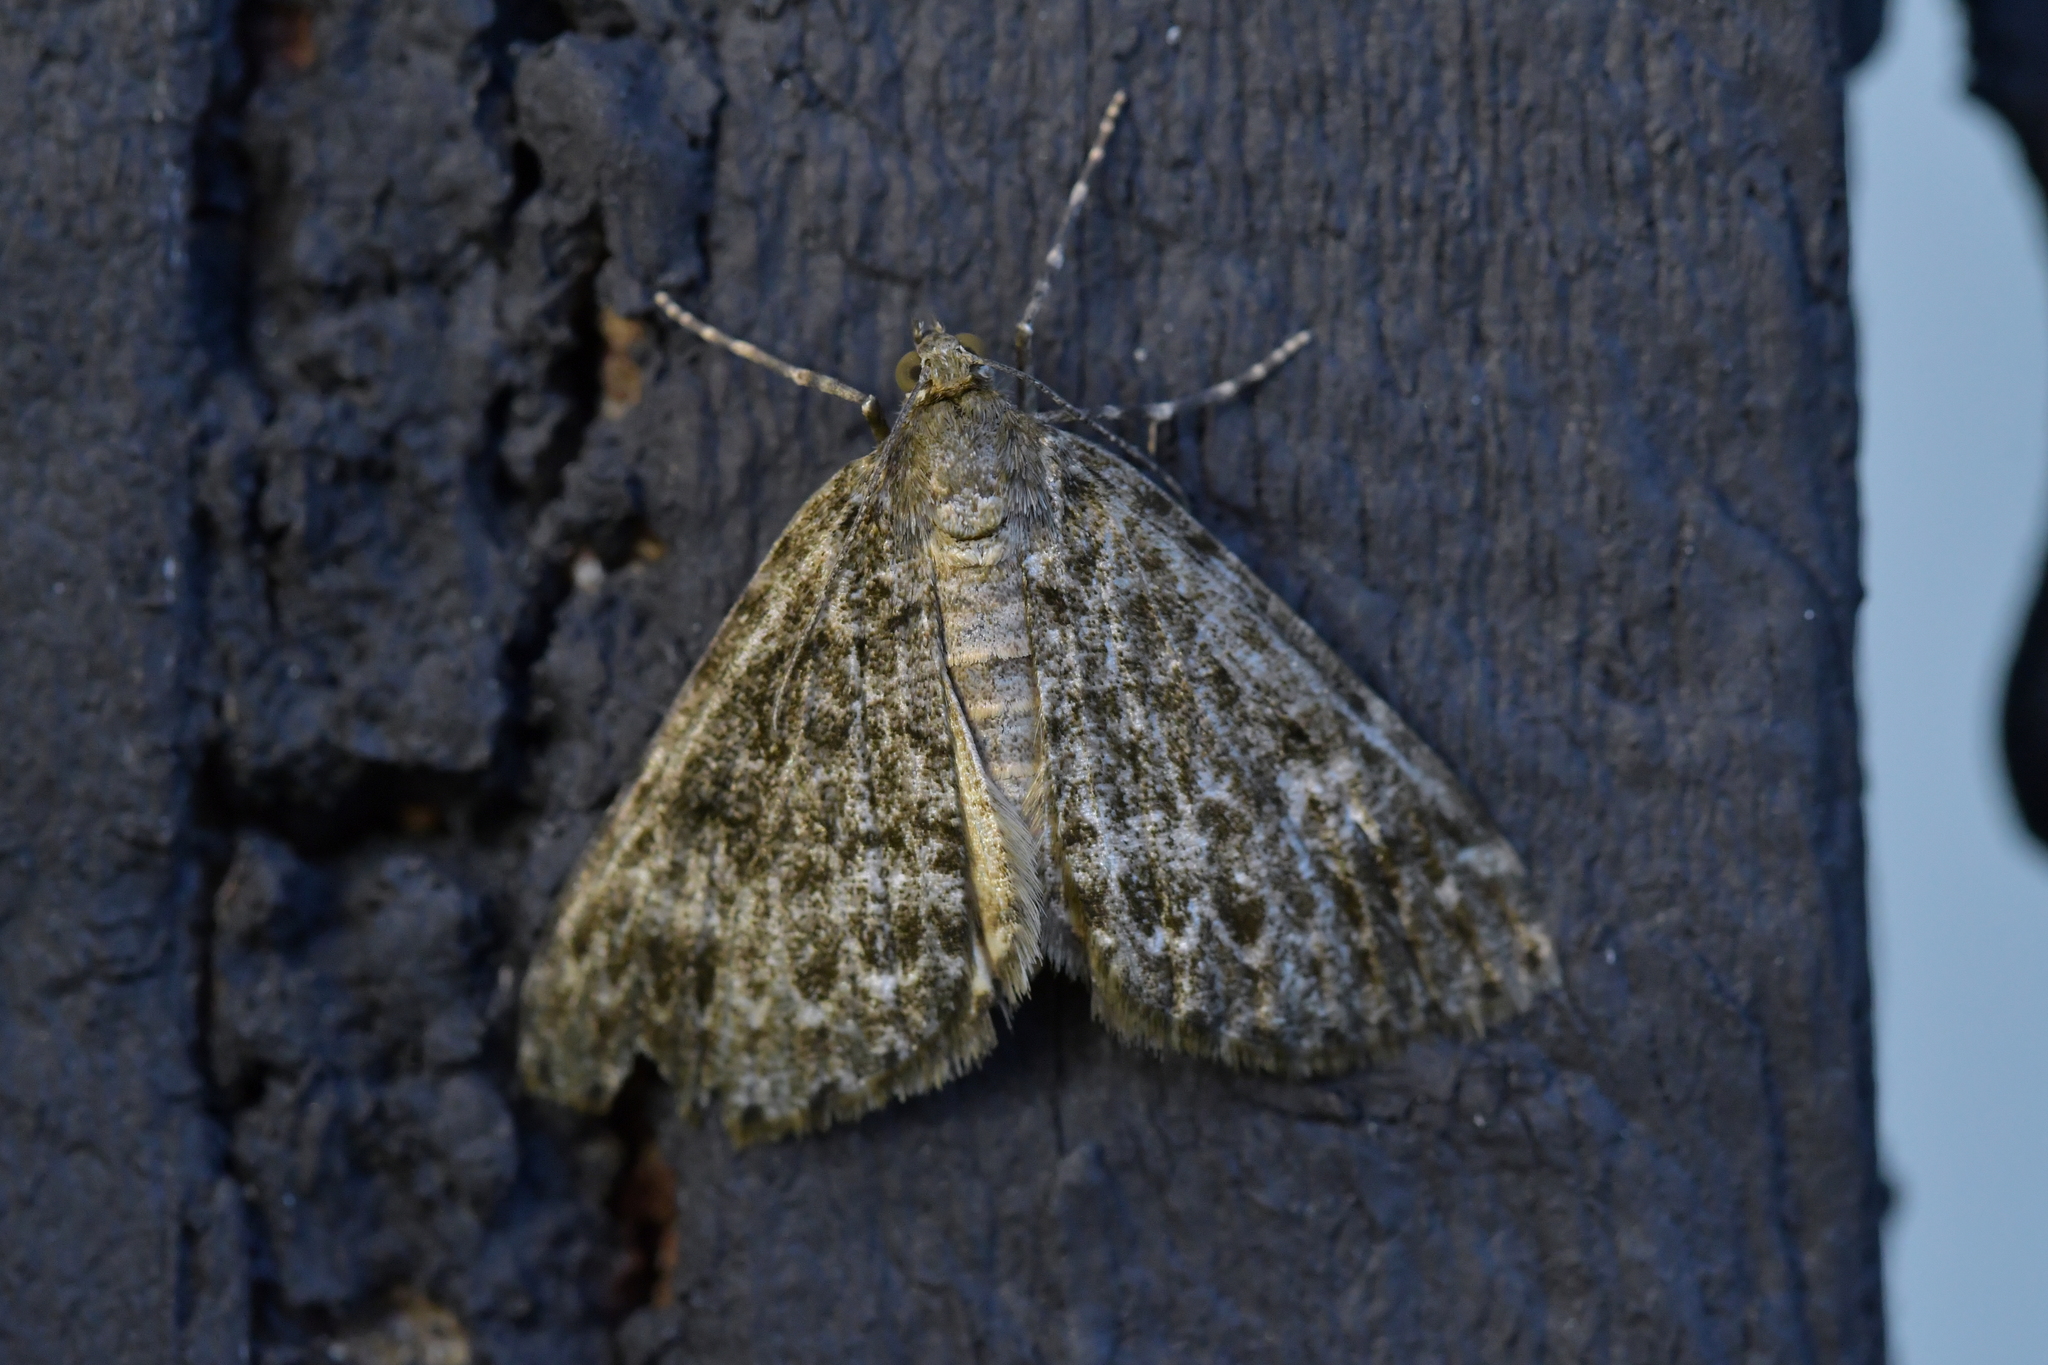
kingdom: Animalia
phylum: Arthropoda
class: Insecta
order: Lepidoptera
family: Geometridae
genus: Pseudocoremia
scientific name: Pseudocoremia indistincta
